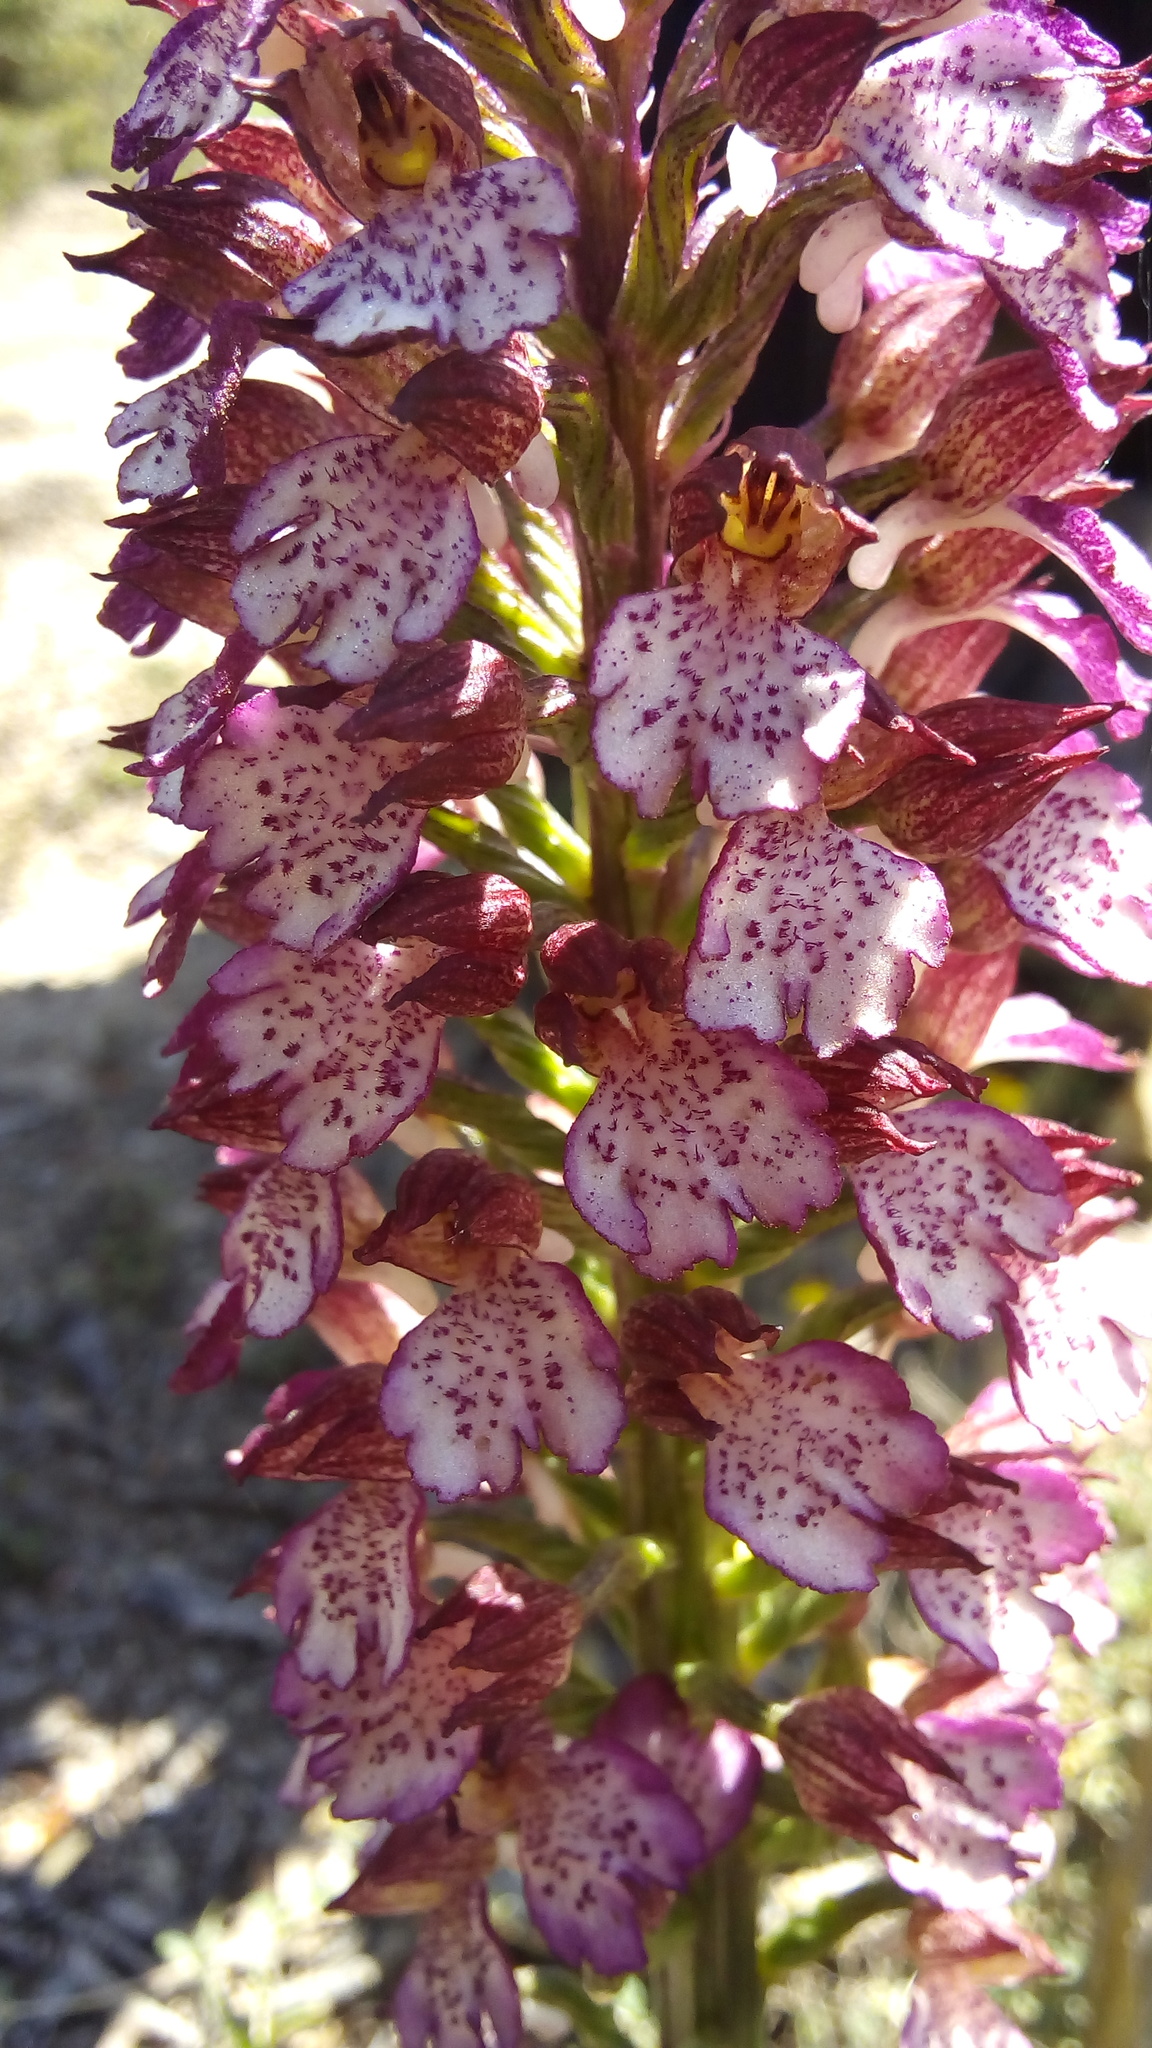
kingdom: Plantae
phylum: Tracheophyta
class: Liliopsida
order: Asparagales
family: Orchidaceae
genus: Orchis
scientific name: Orchis purpurea
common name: Lady orchid
